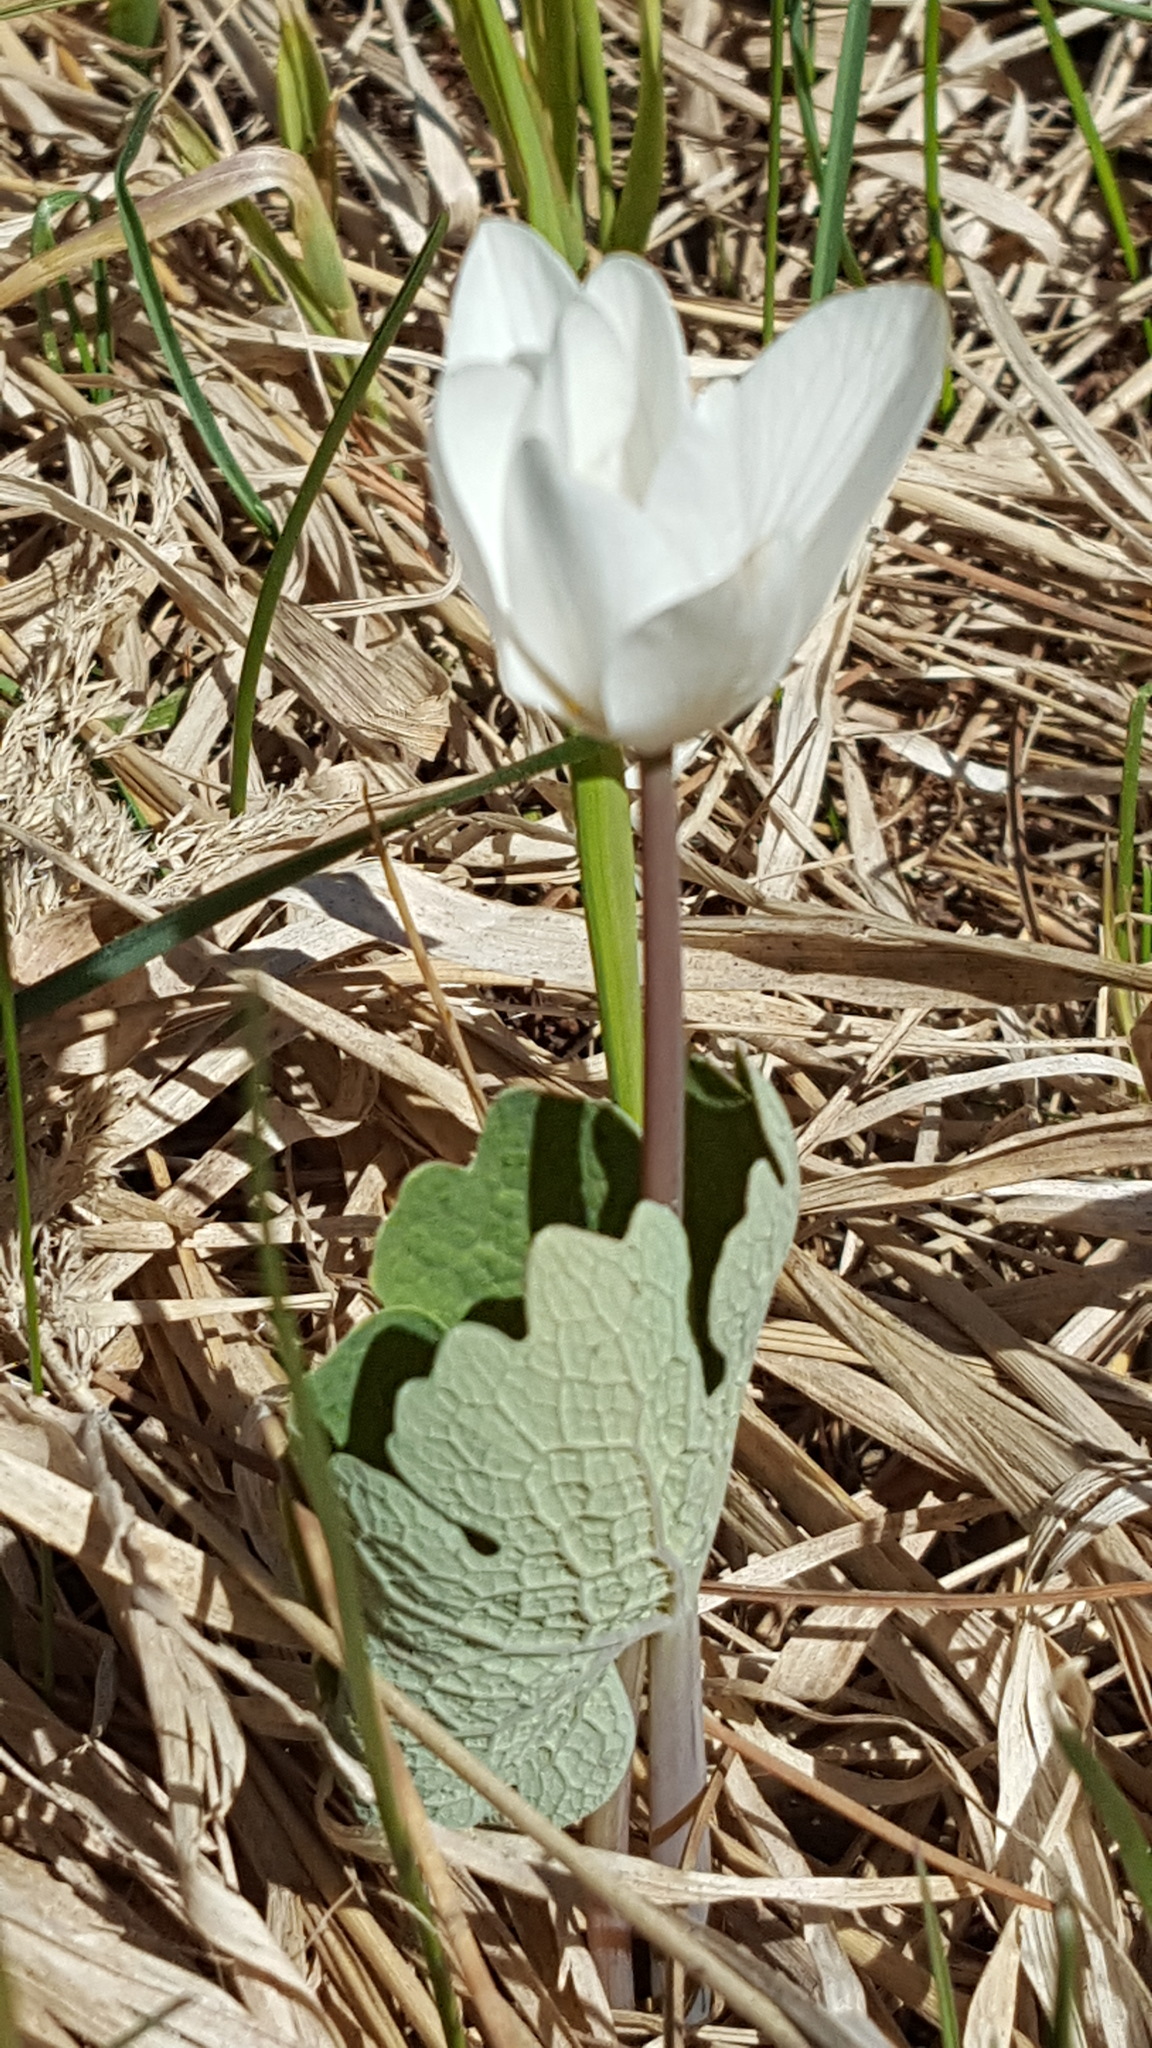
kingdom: Plantae
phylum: Tracheophyta
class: Magnoliopsida
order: Ranunculales
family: Papaveraceae
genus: Sanguinaria
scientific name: Sanguinaria canadensis
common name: Bloodroot
